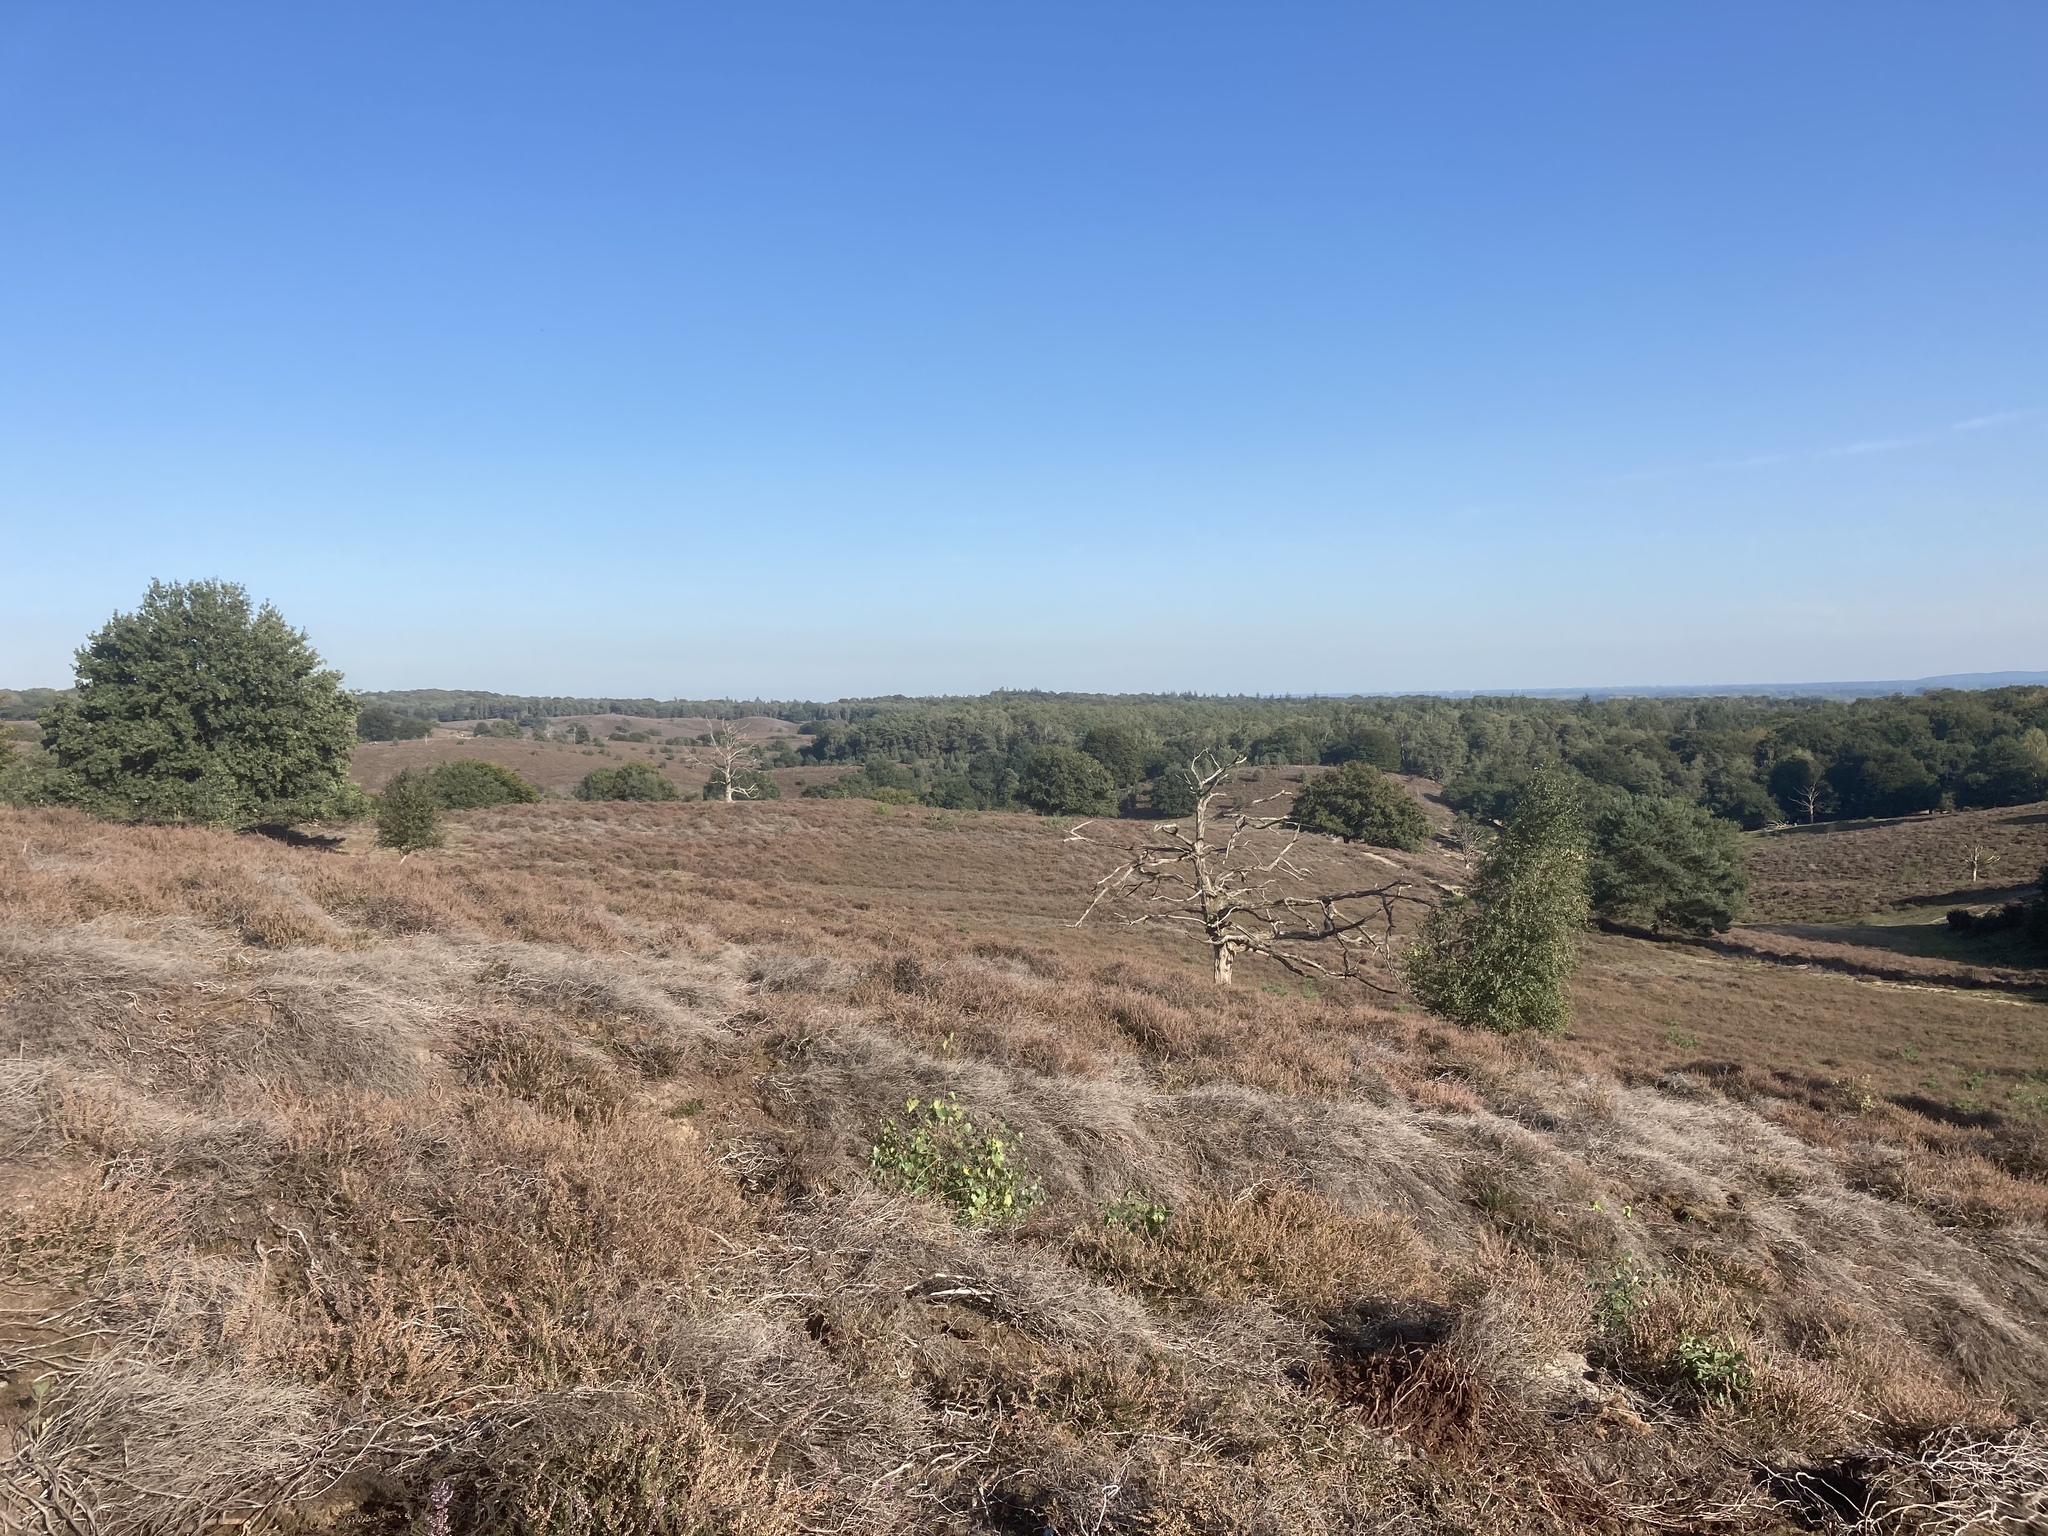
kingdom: Plantae
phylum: Tracheophyta
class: Magnoliopsida
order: Ericales
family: Ericaceae
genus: Calluna
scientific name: Calluna vulgaris
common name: Heather
